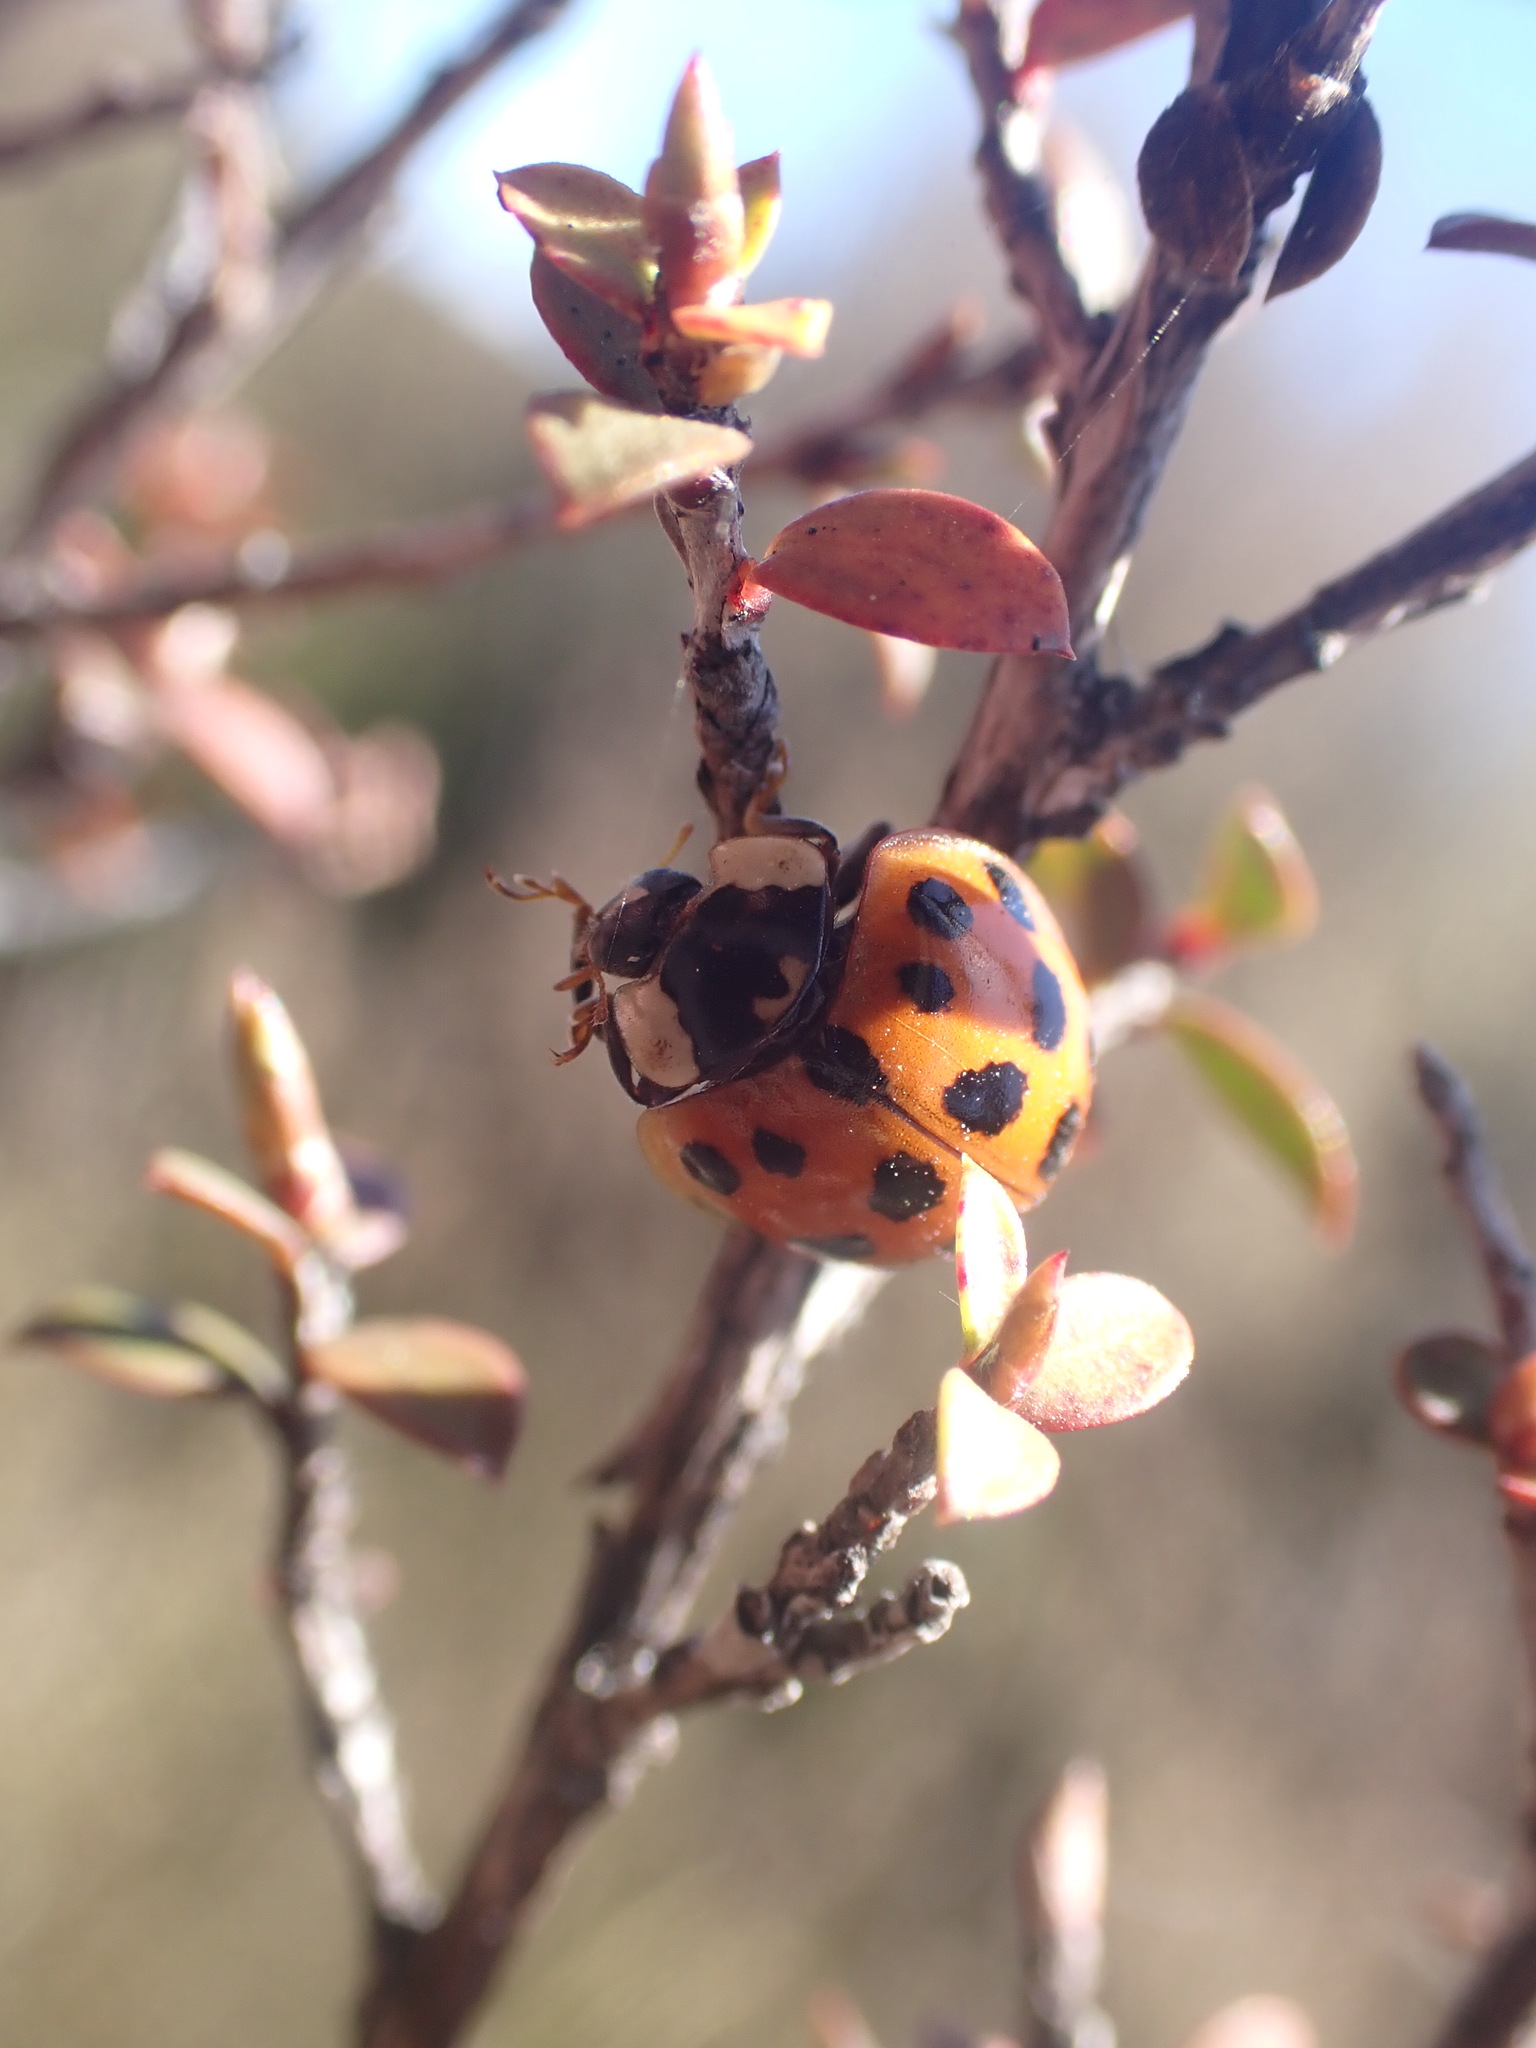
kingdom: Animalia
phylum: Arthropoda
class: Insecta
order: Coleoptera
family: Coccinellidae
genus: Harmonia
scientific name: Harmonia axyridis
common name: Harlequin ladybird
